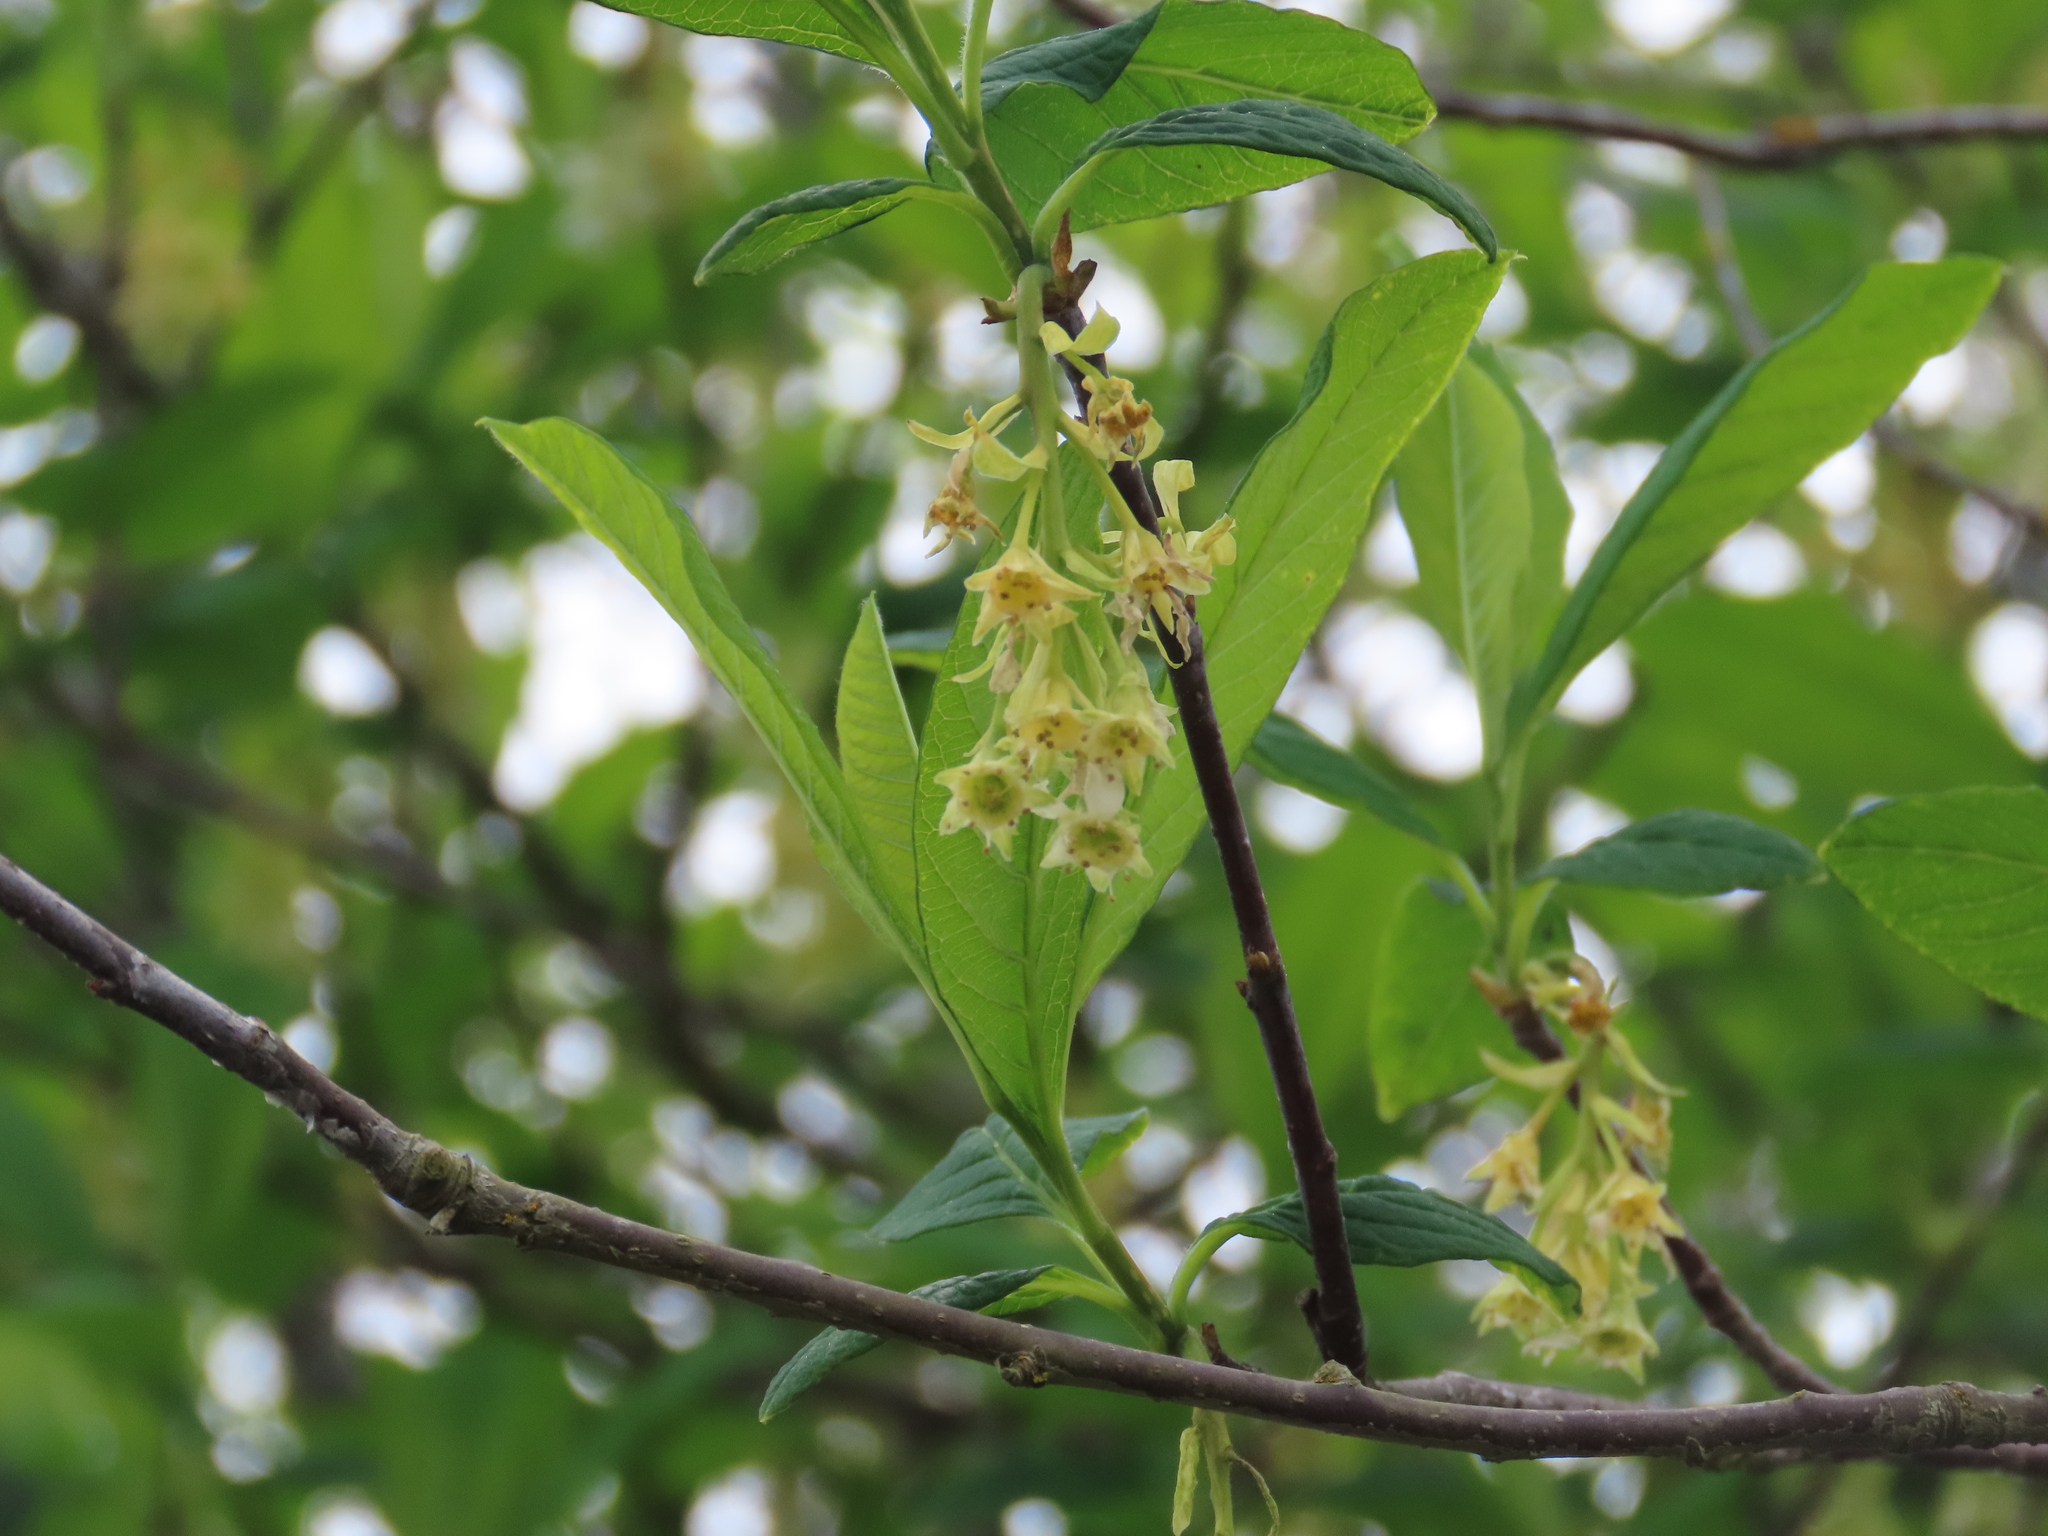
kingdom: Plantae
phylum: Tracheophyta
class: Magnoliopsida
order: Rosales
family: Rosaceae
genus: Oemleria
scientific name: Oemleria cerasiformis
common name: Osoberry
